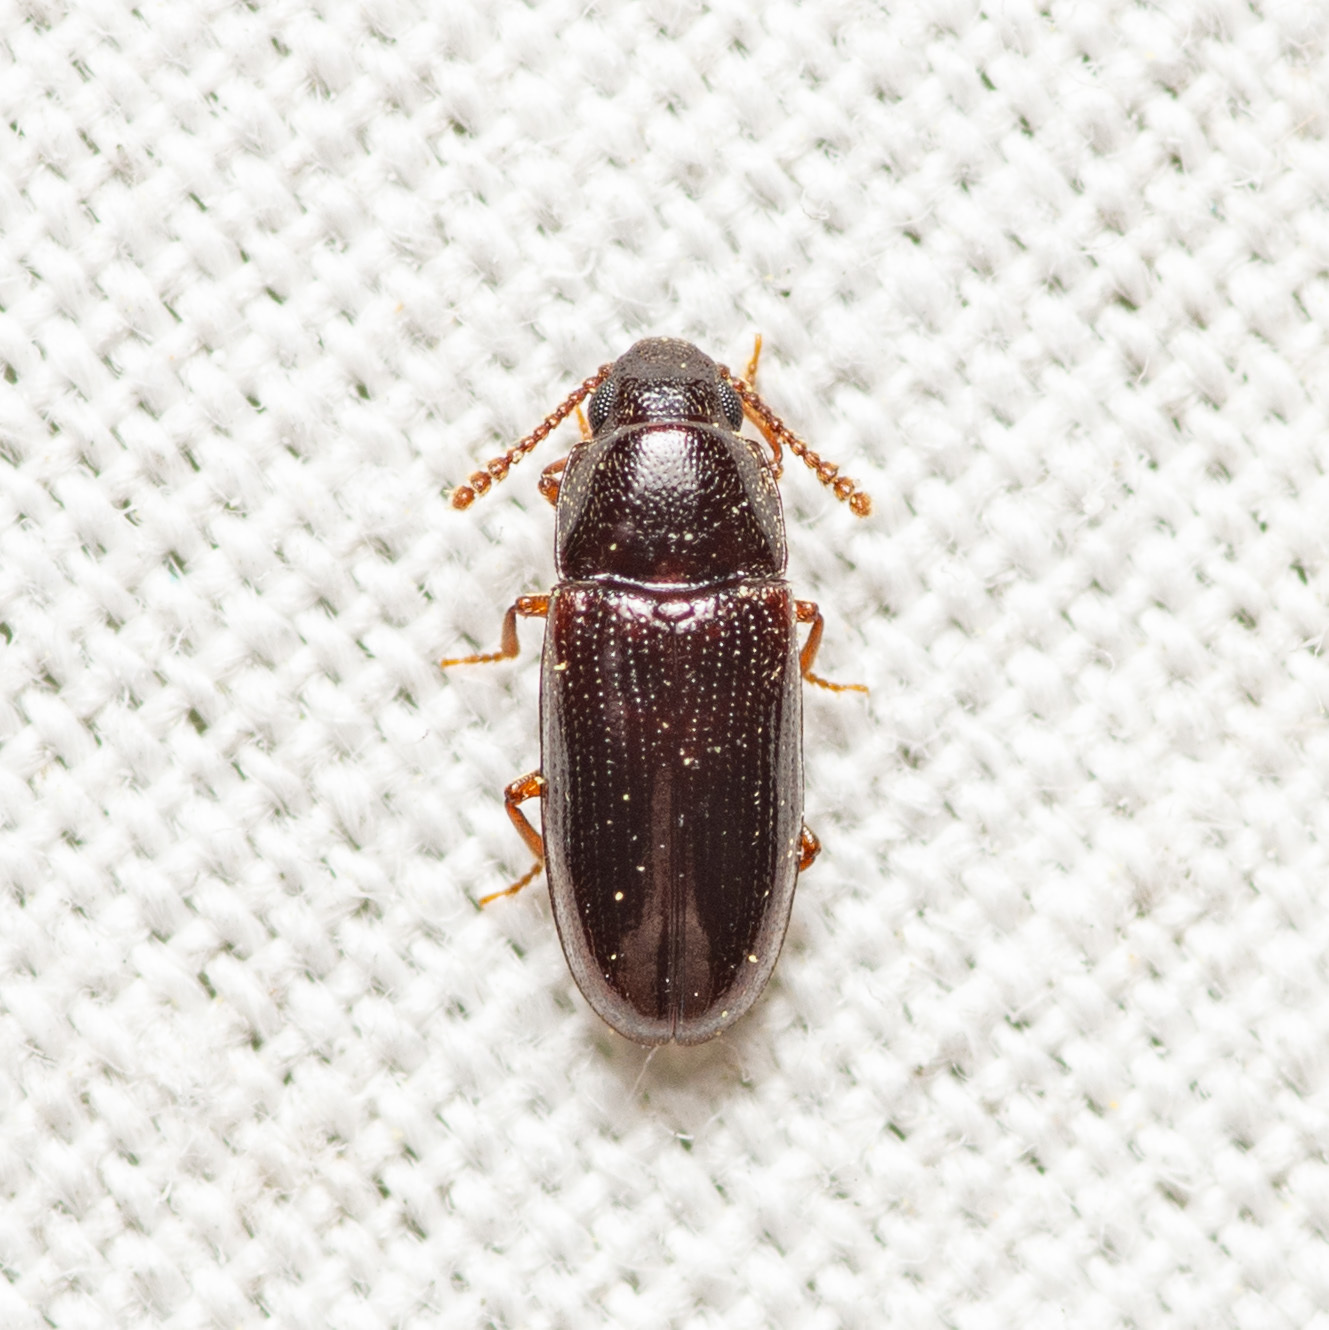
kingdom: Animalia
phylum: Arthropoda
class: Insecta
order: Coleoptera
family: Erotylidae
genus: Pharaxonotha
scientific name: Pharaxonotha kirschii
